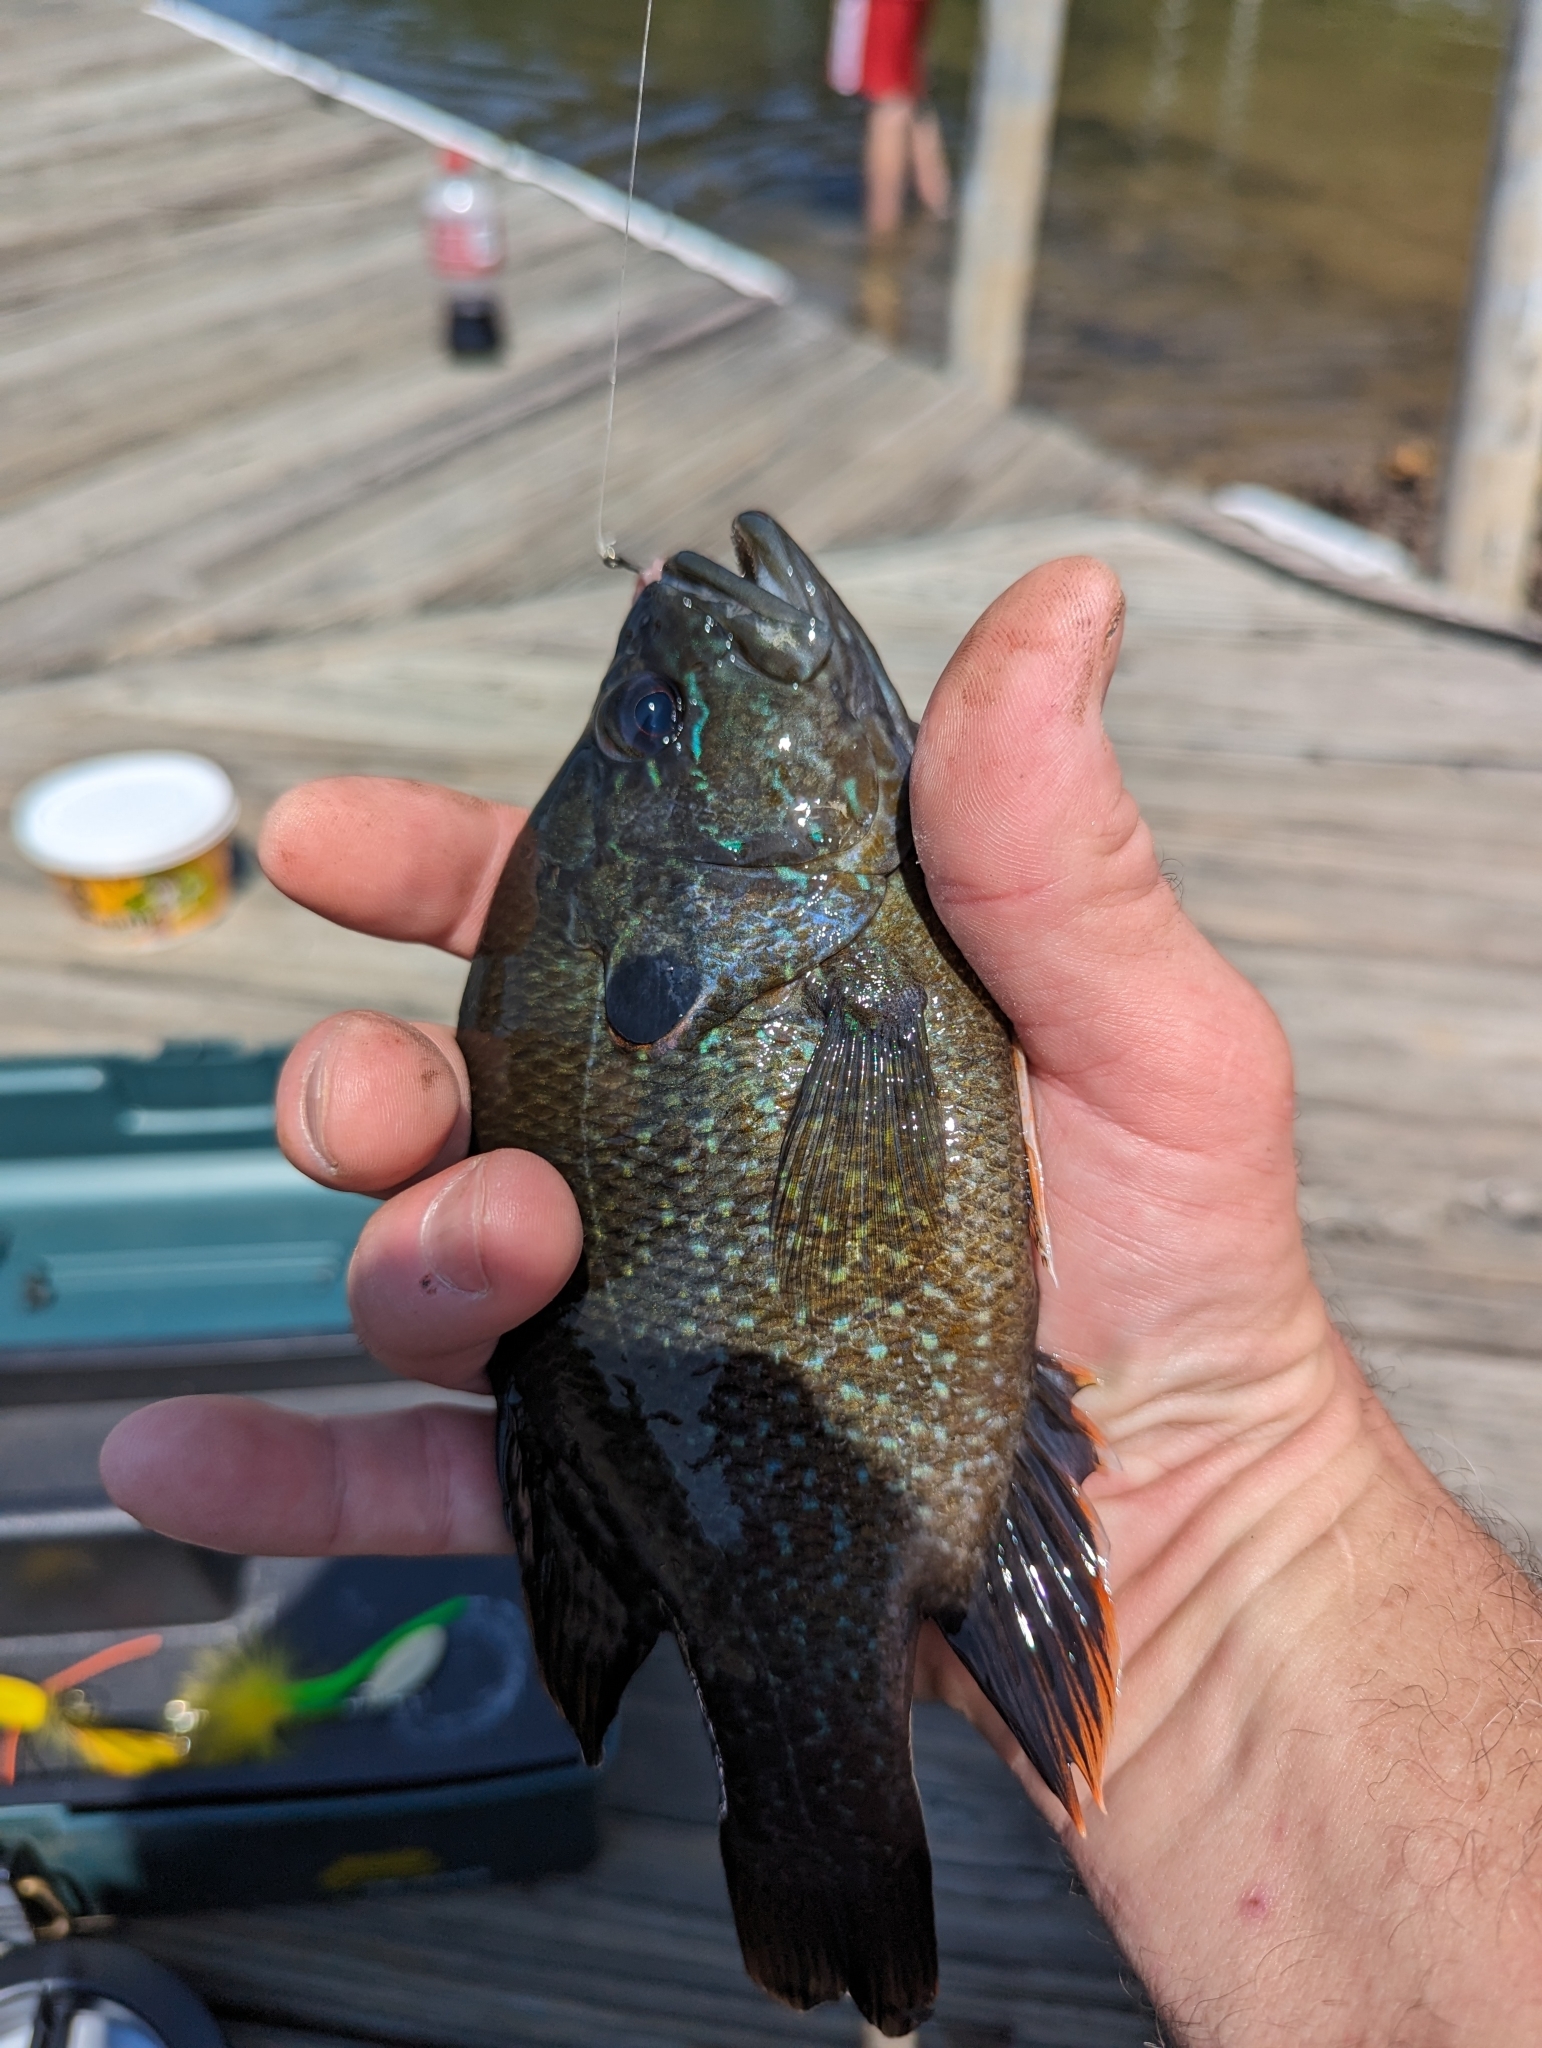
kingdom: Animalia
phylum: Chordata
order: Perciformes
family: Centrarchidae
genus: Lepomis
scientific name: Lepomis cyanellus
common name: Green sunfish
